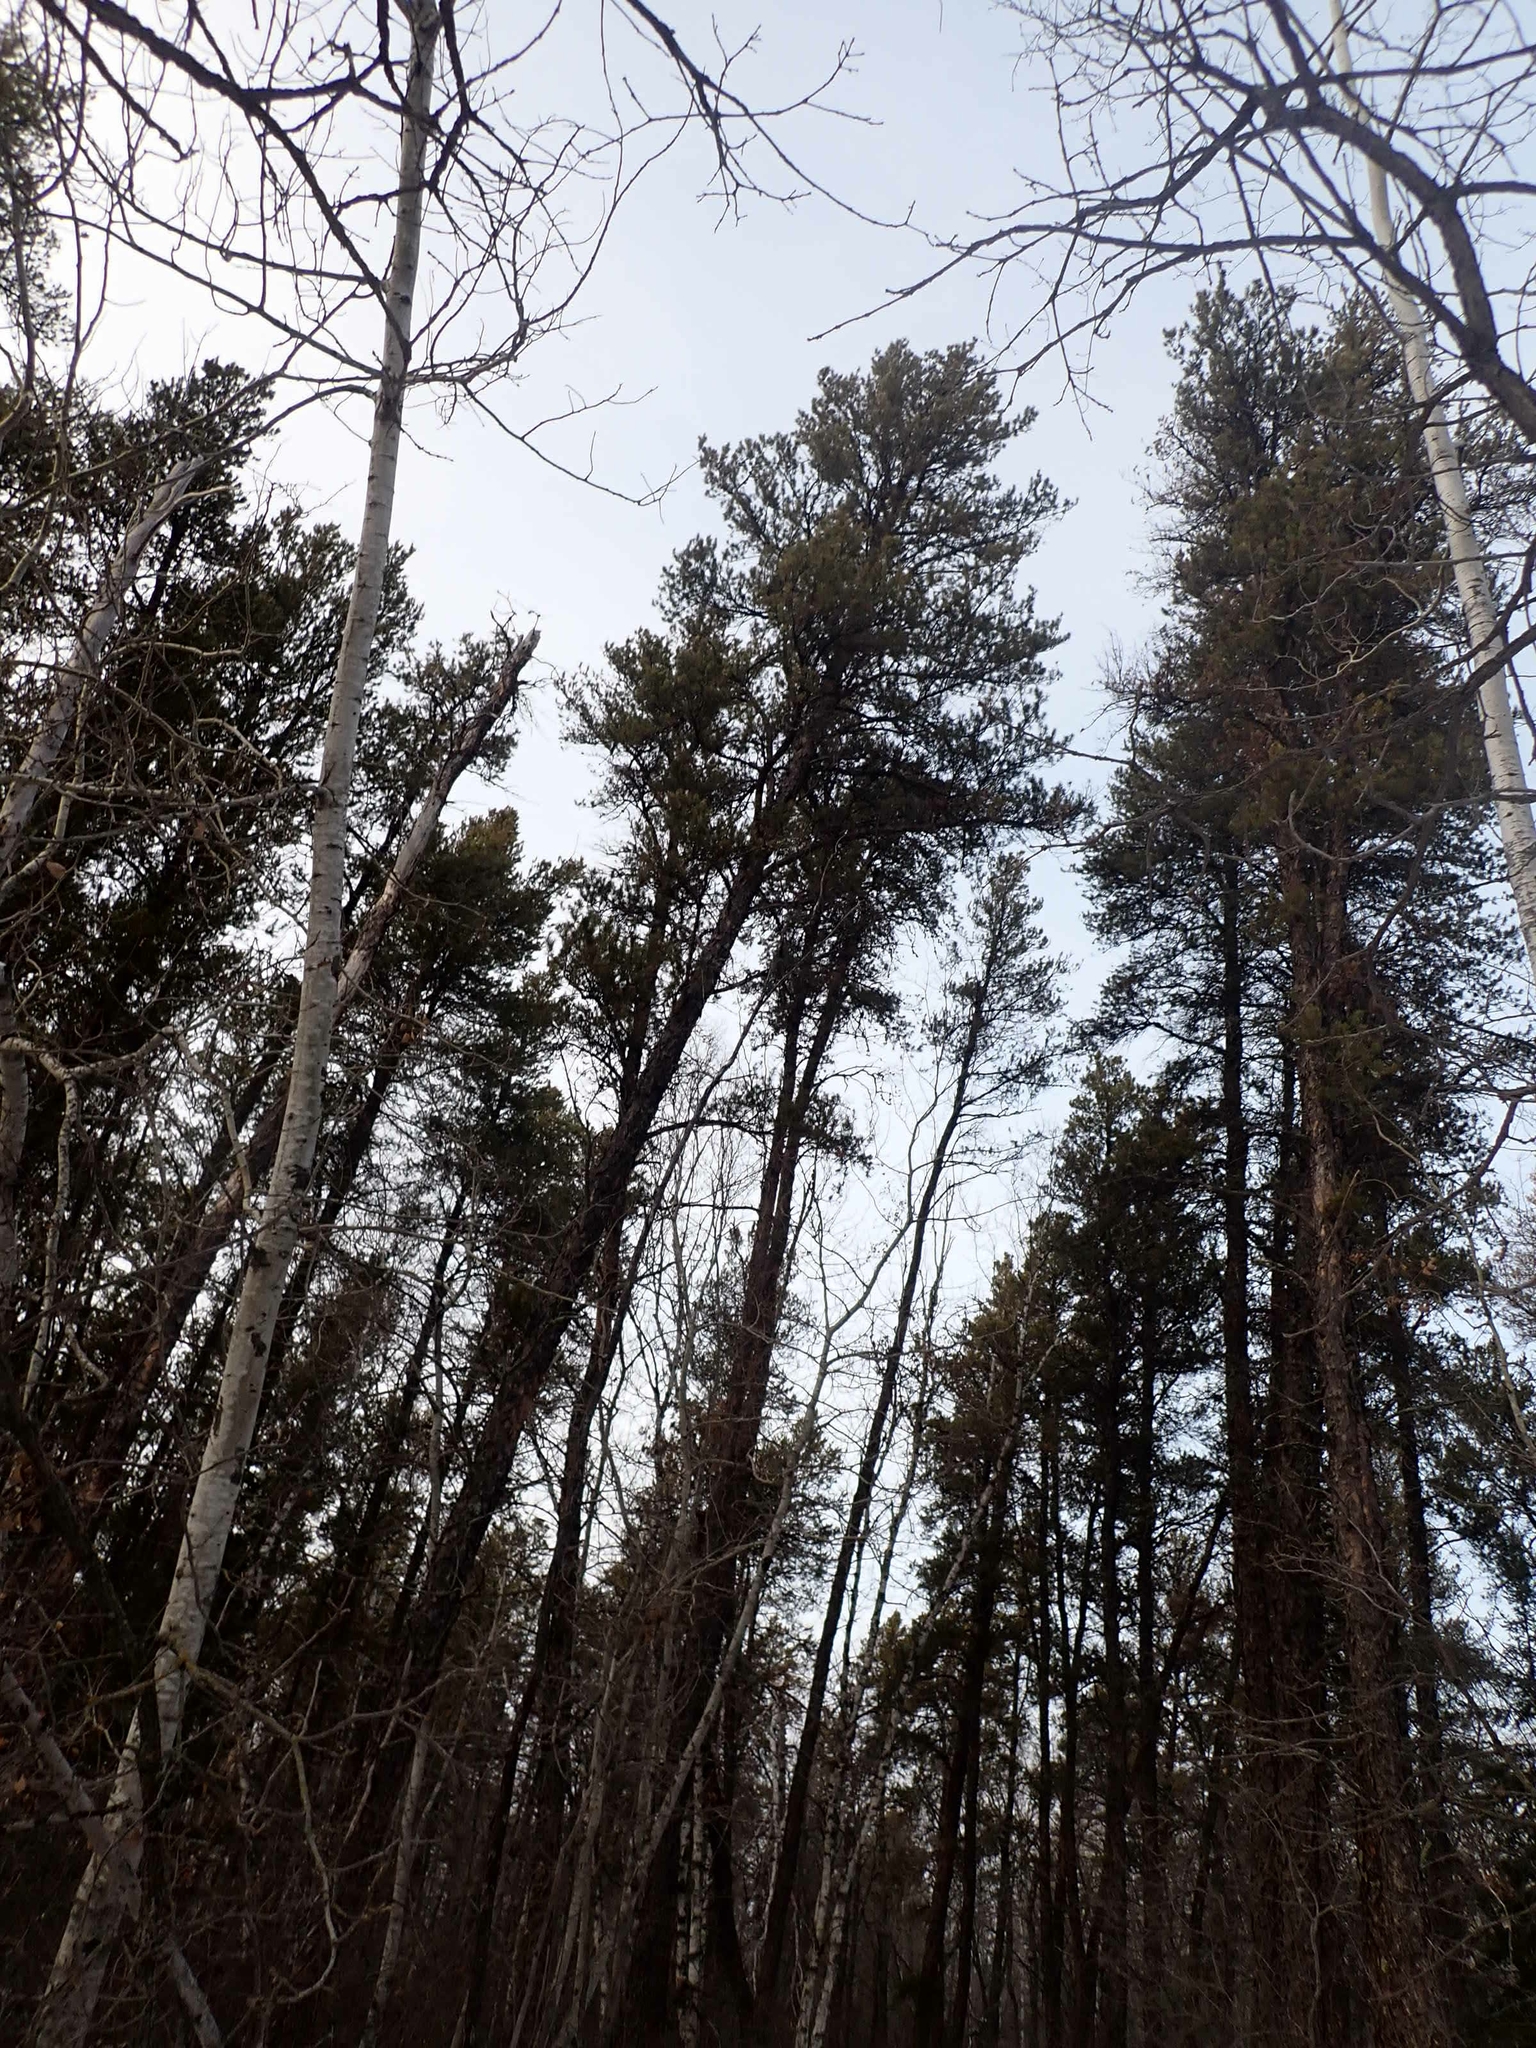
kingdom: Plantae
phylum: Tracheophyta
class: Pinopsida
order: Pinales
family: Pinaceae
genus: Pinus
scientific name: Pinus banksiana
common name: Jack pine
